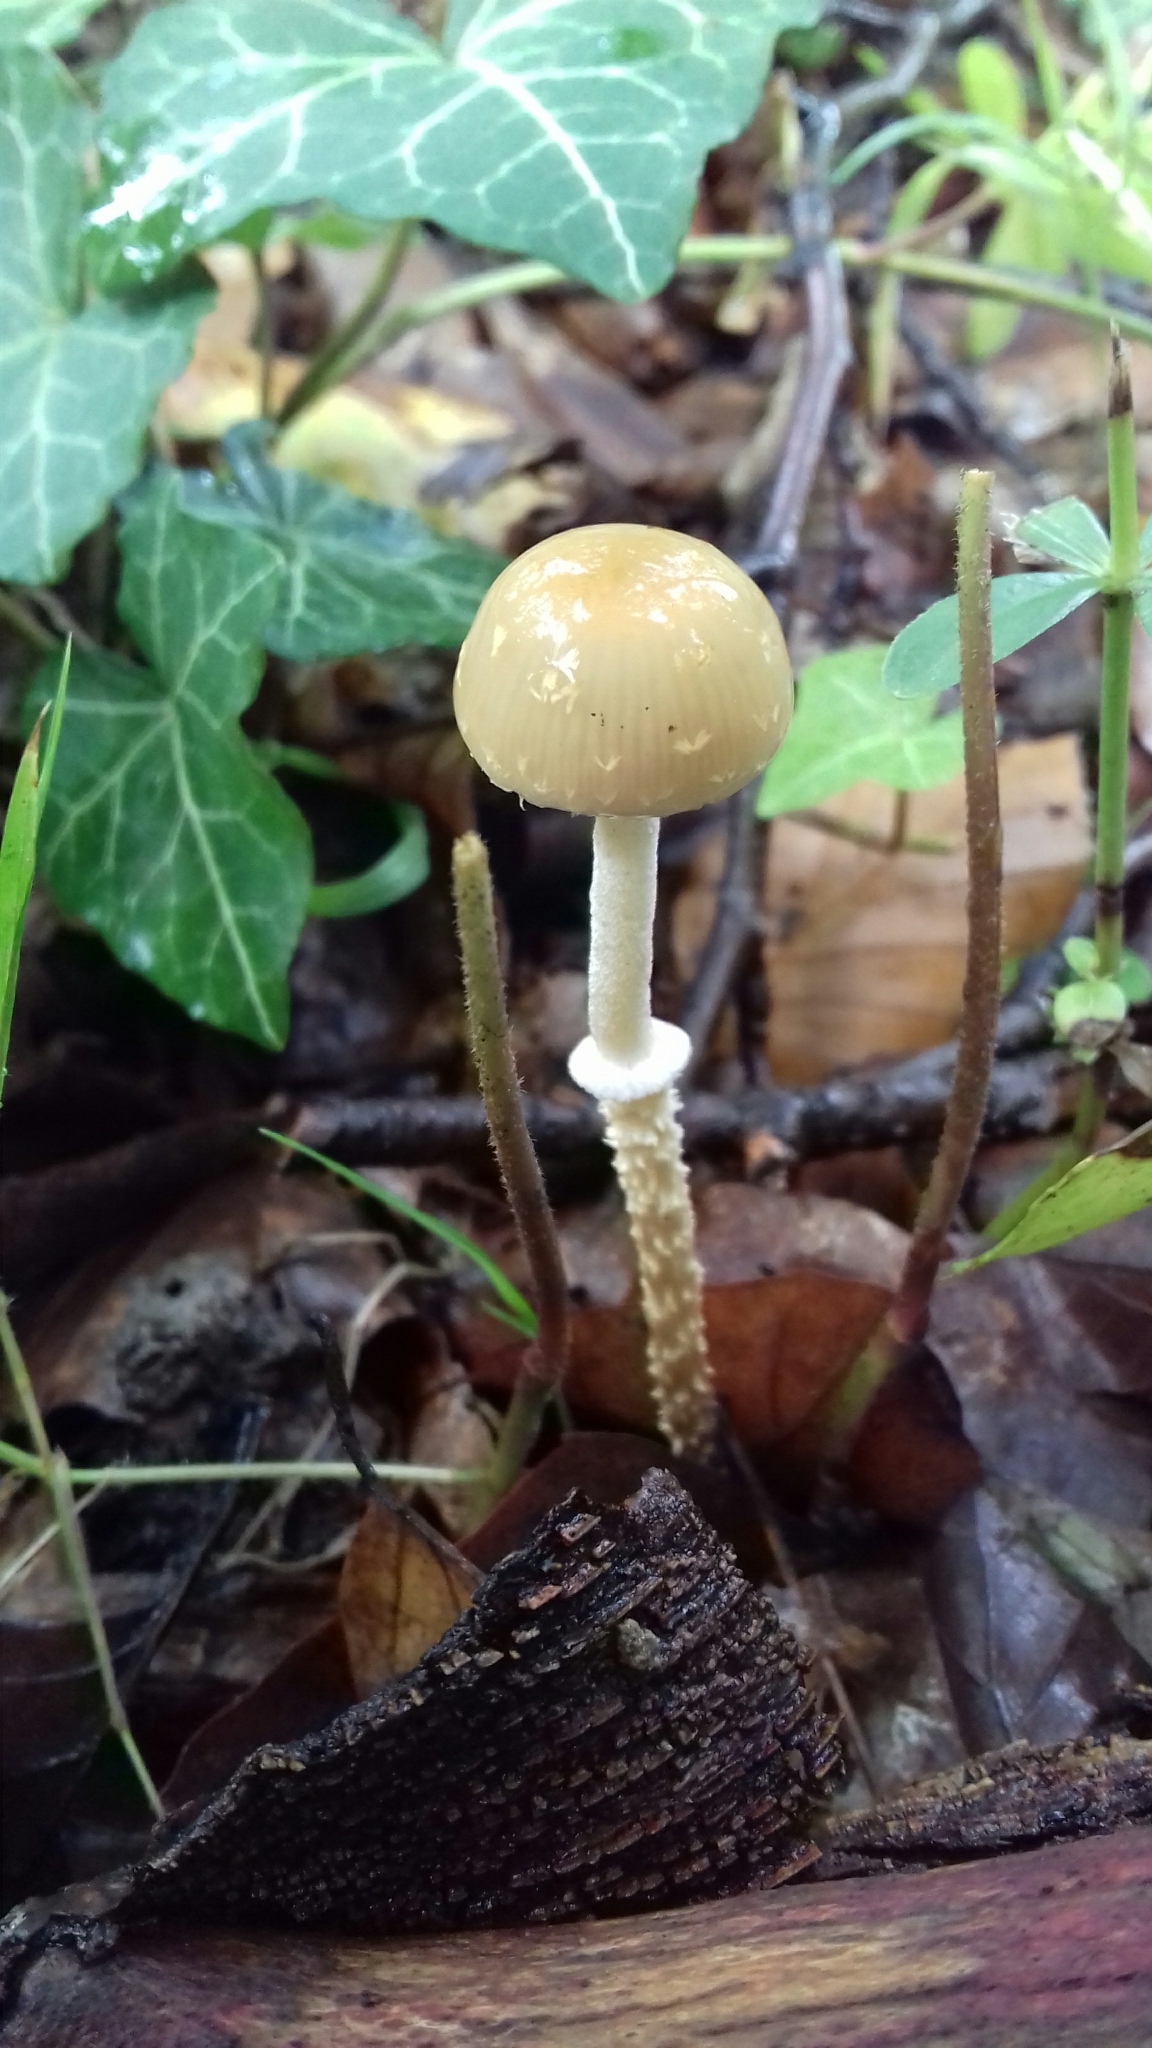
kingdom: Fungi
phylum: Basidiomycota
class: Agaricomycetes
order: Agaricales
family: Strophariaceae
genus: Leratiomyces
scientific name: Leratiomyces squamosus
